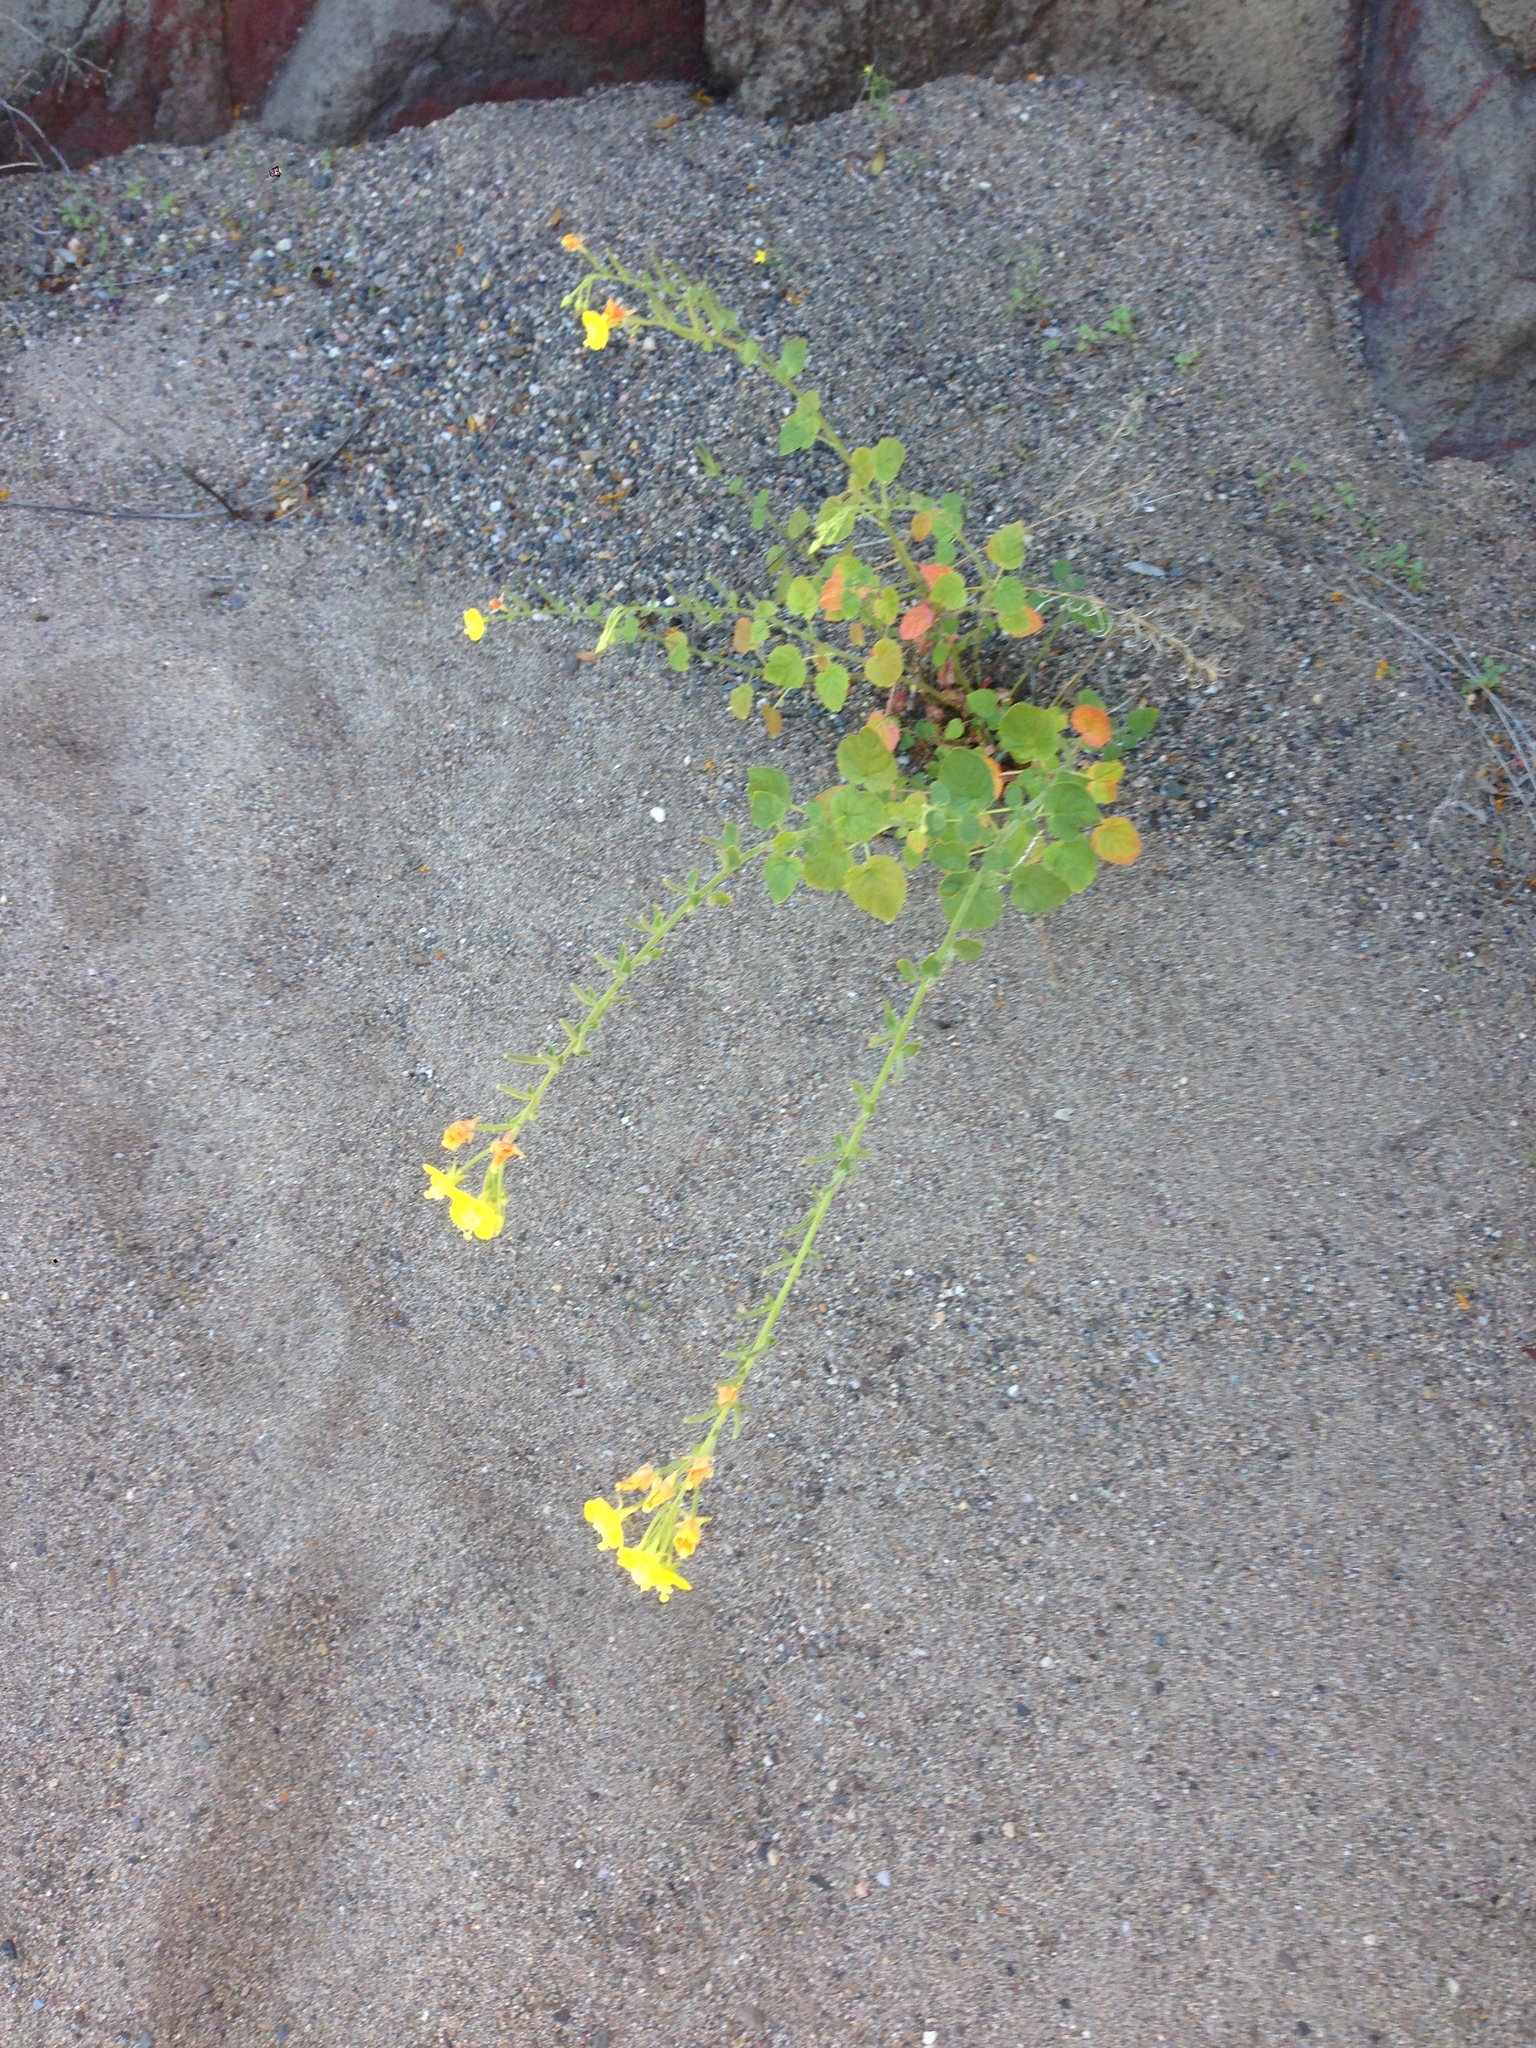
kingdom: Plantae
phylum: Tracheophyta
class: Magnoliopsida
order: Myrtales
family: Onagraceae
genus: Chylismia
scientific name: Chylismia cardiophylla
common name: Heartleaf suncup
